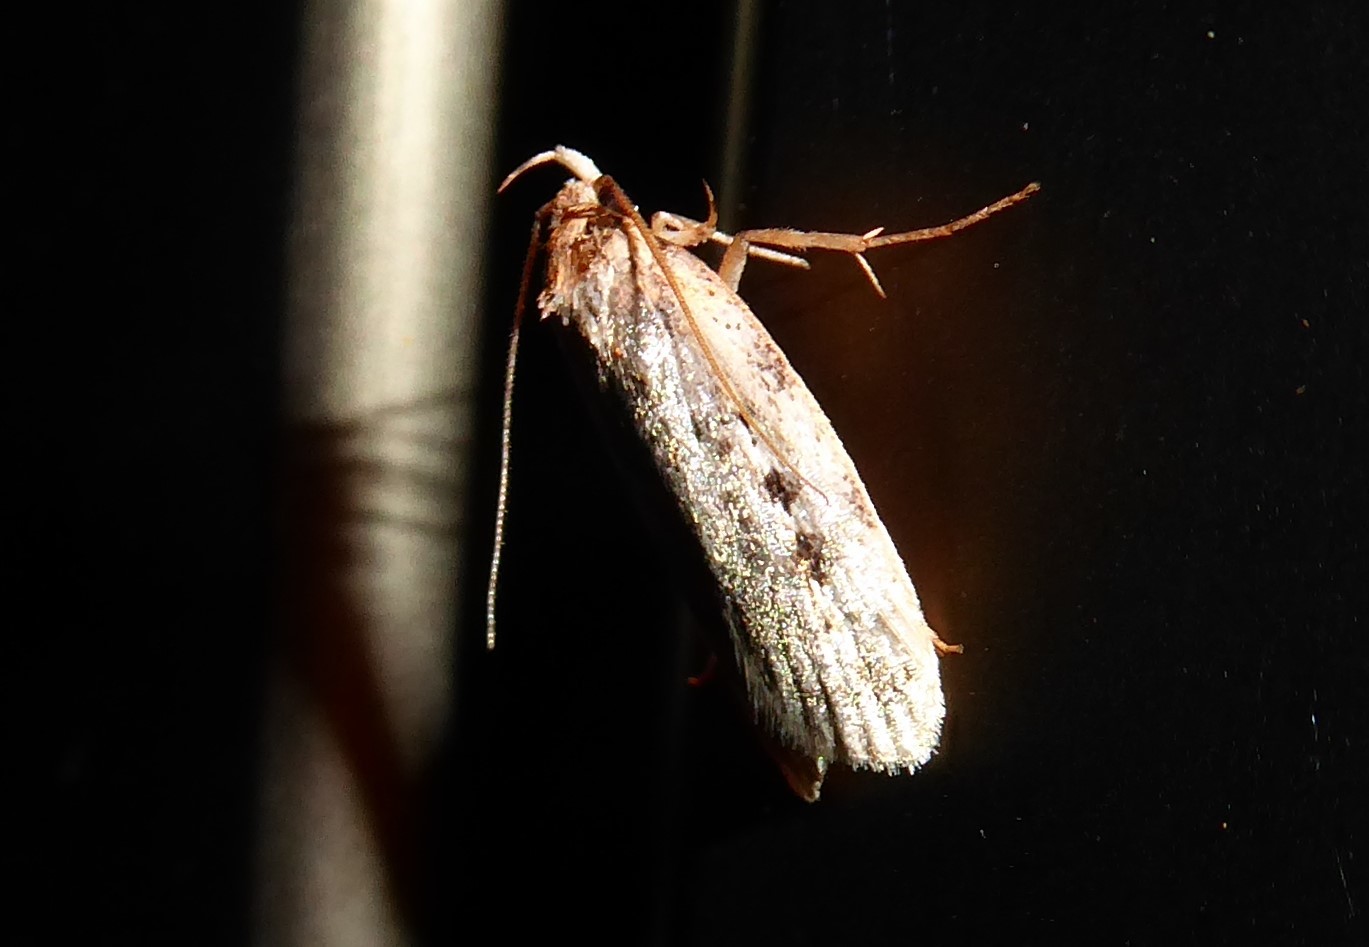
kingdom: Animalia
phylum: Arthropoda
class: Insecta
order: Lepidoptera
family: Oecophoridae
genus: Barea
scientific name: Barea exarcha
